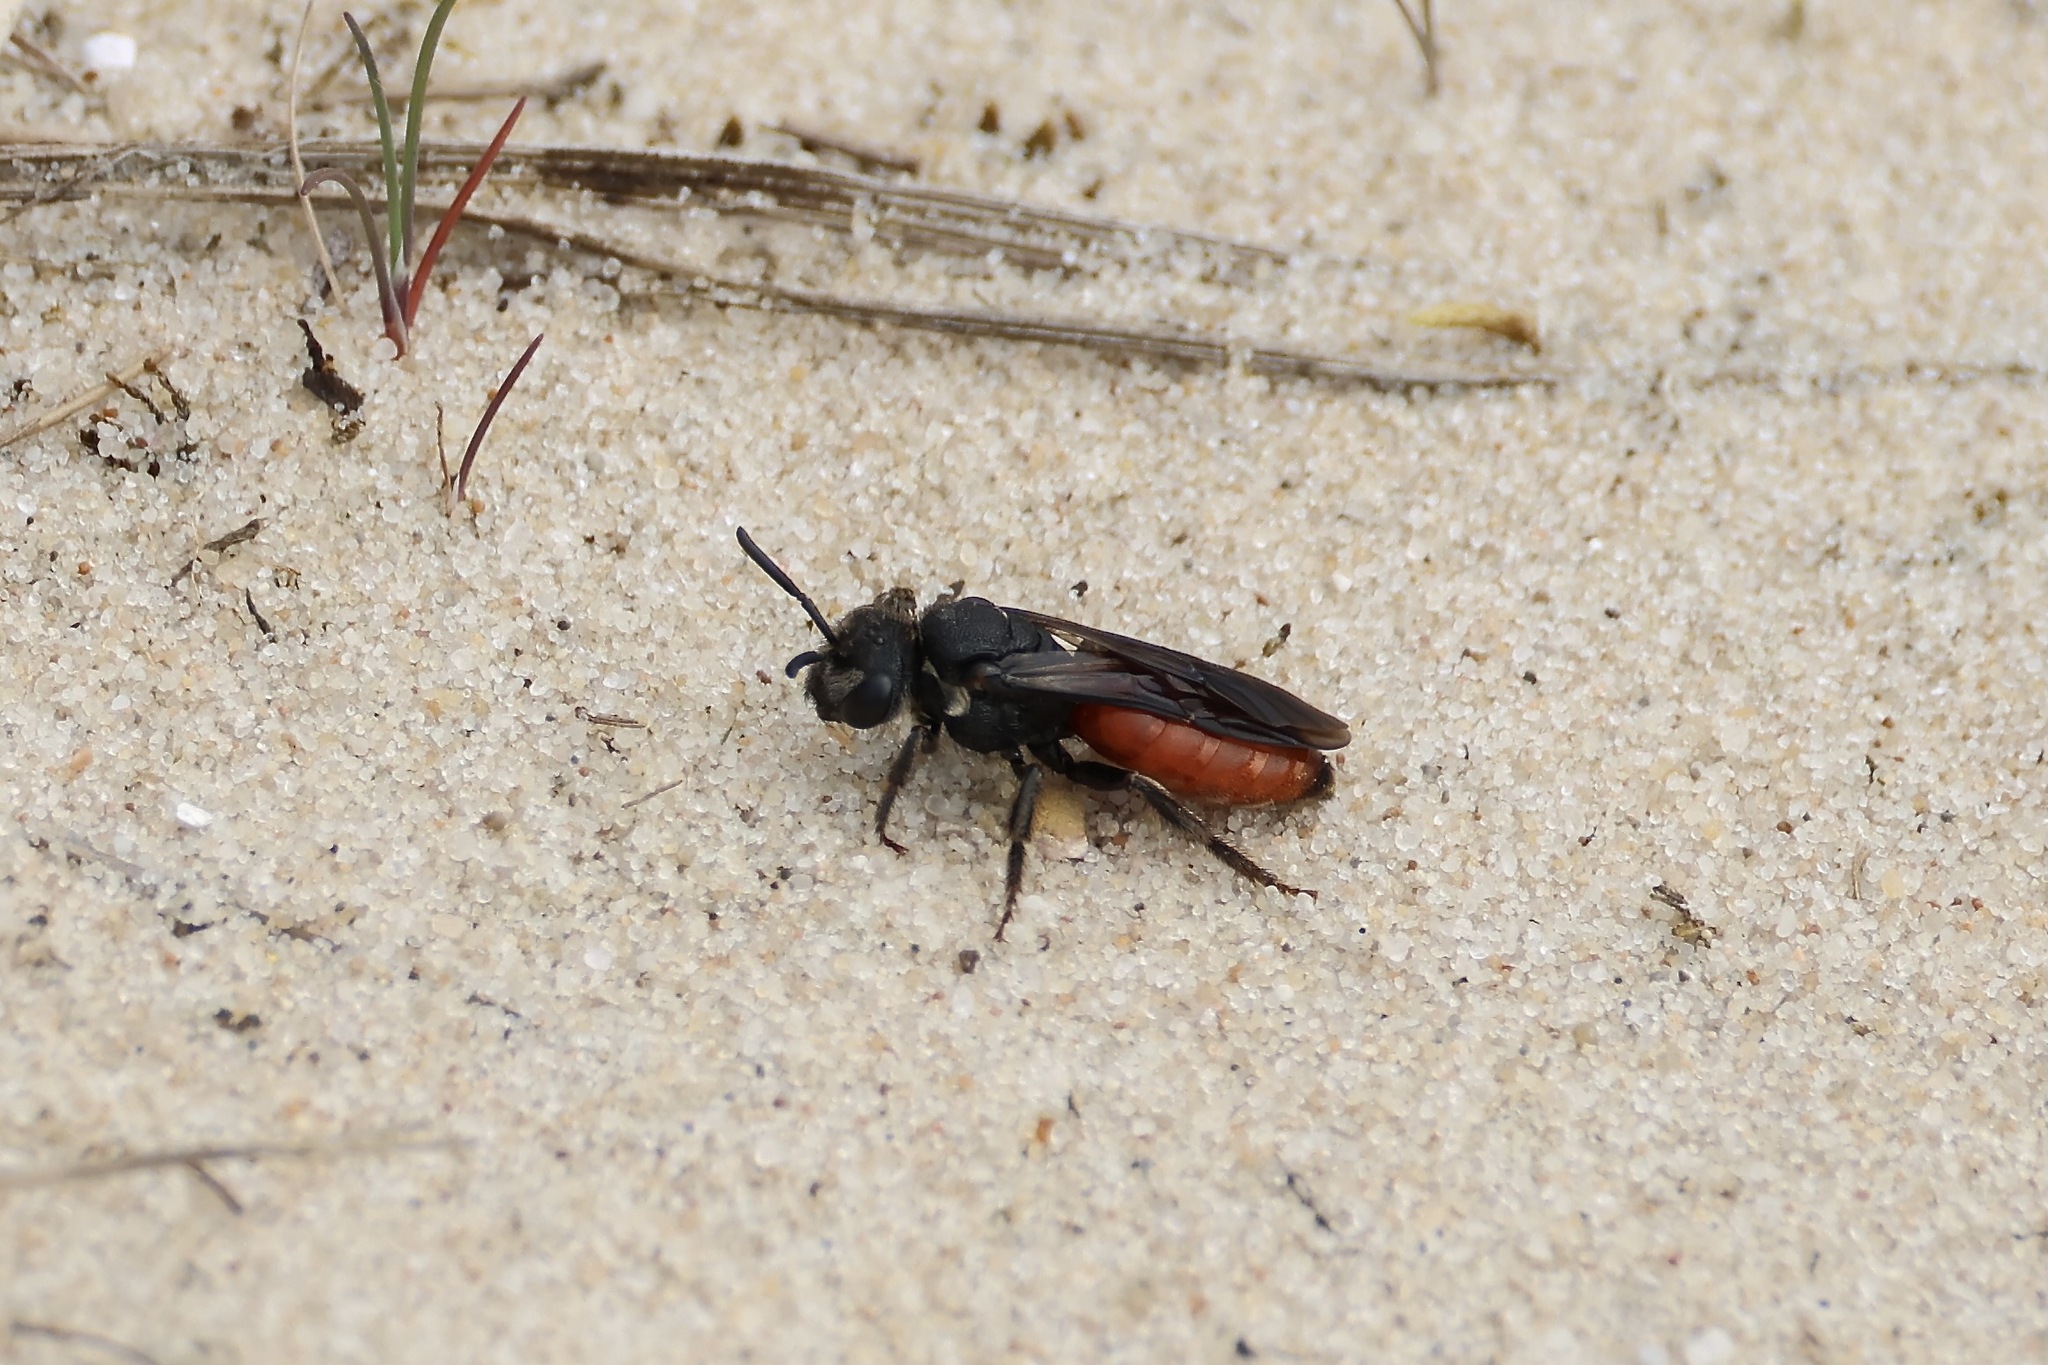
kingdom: Animalia
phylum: Arthropoda
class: Insecta
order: Hymenoptera
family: Halictidae
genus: Sphecodes
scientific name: Sphecodes albilabris
